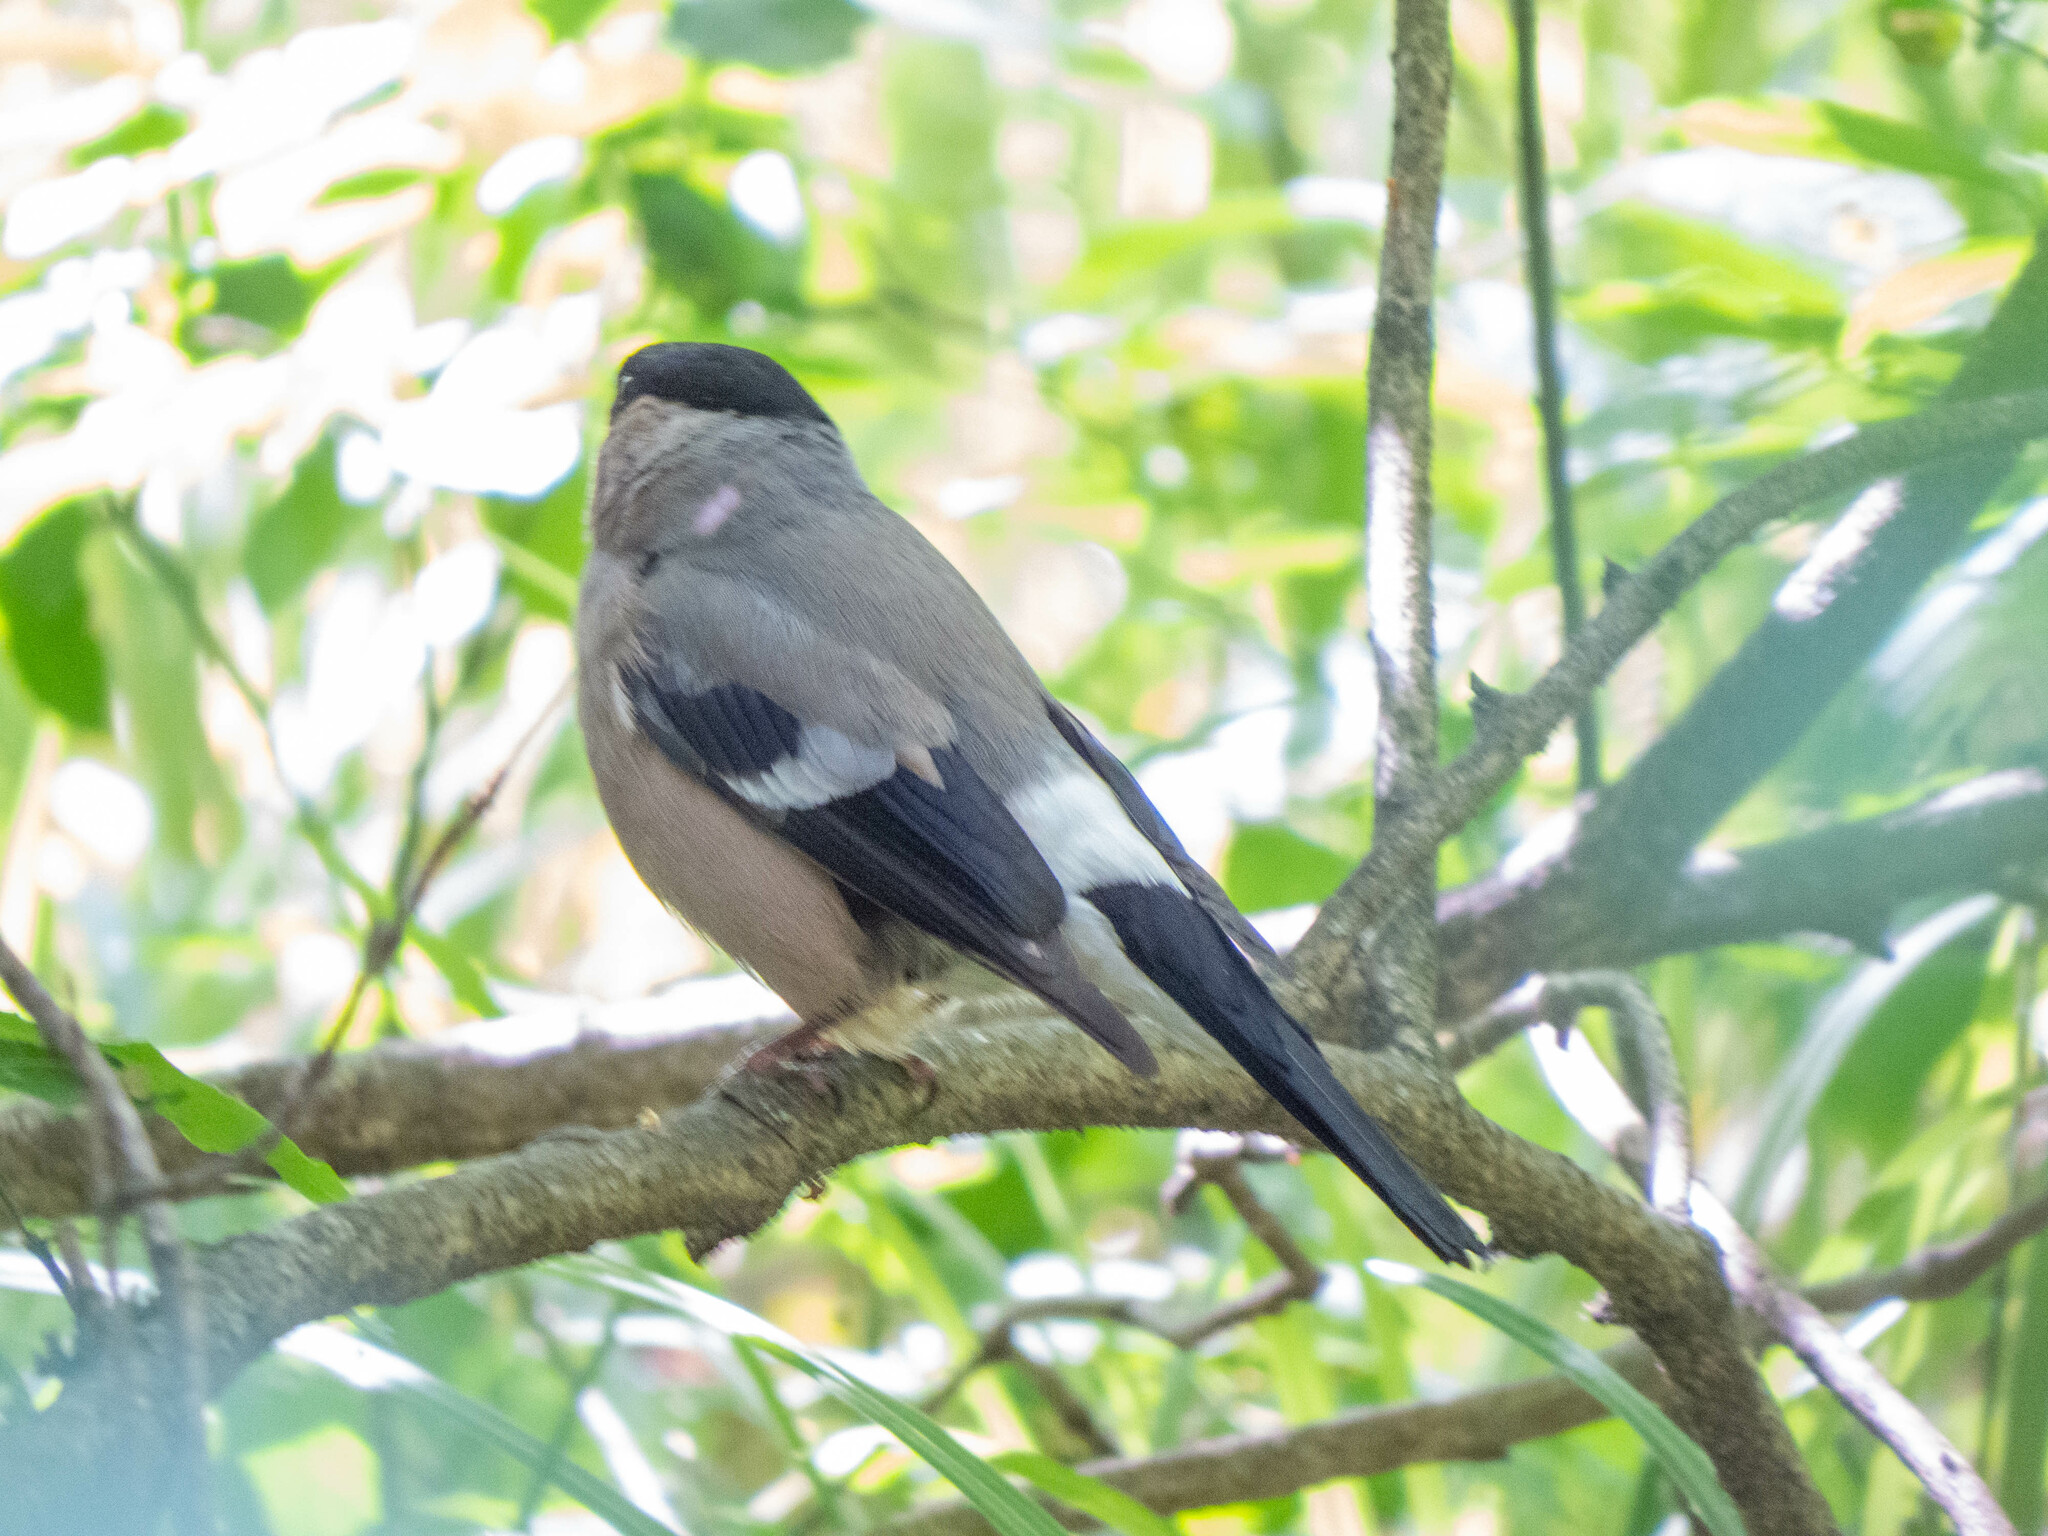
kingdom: Animalia
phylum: Chordata
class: Aves
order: Passeriformes
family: Fringillidae
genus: Pyrrhula
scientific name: Pyrrhula pyrrhula
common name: Eurasian bullfinch
